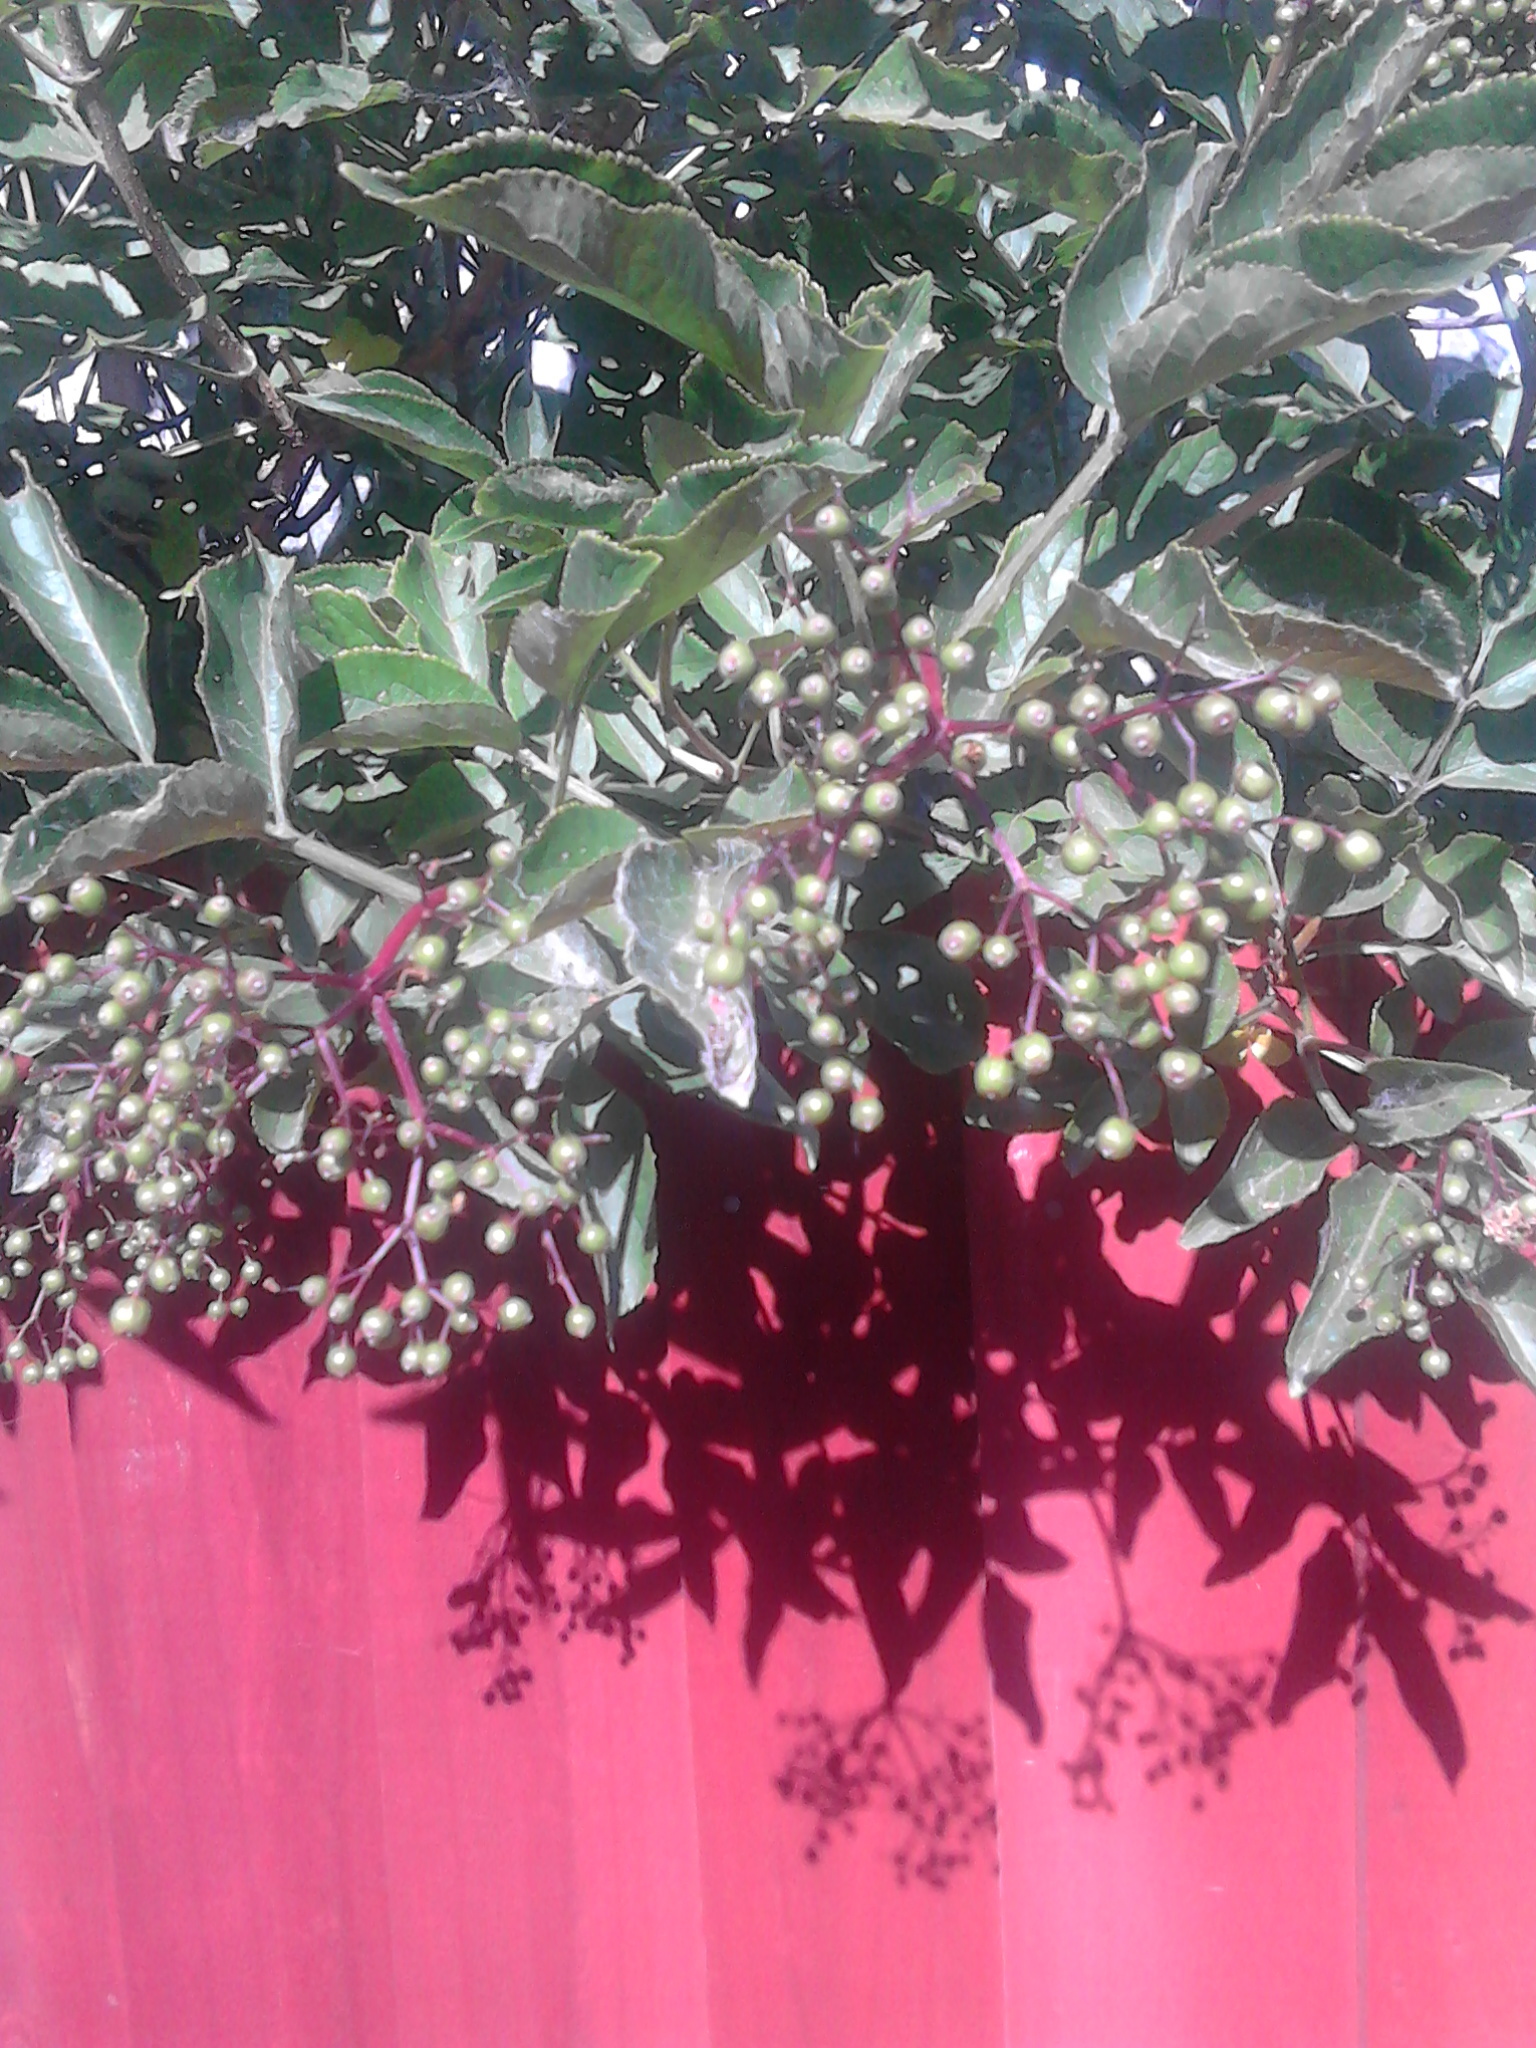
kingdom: Plantae
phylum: Tracheophyta
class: Magnoliopsida
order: Dipsacales
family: Viburnaceae
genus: Sambucus
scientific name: Sambucus nigra
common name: Elder
